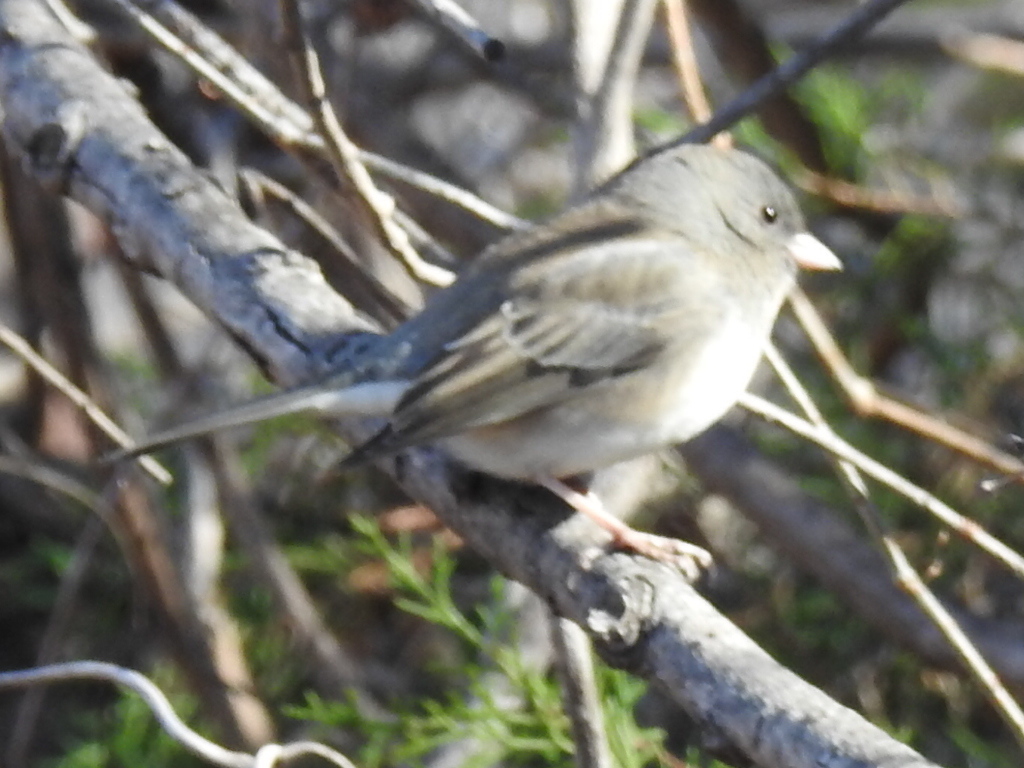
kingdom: Animalia
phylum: Chordata
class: Aves
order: Passeriformes
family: Passerellidae
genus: Junco
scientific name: Junco hyemalis
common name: Dark-eyed junco
